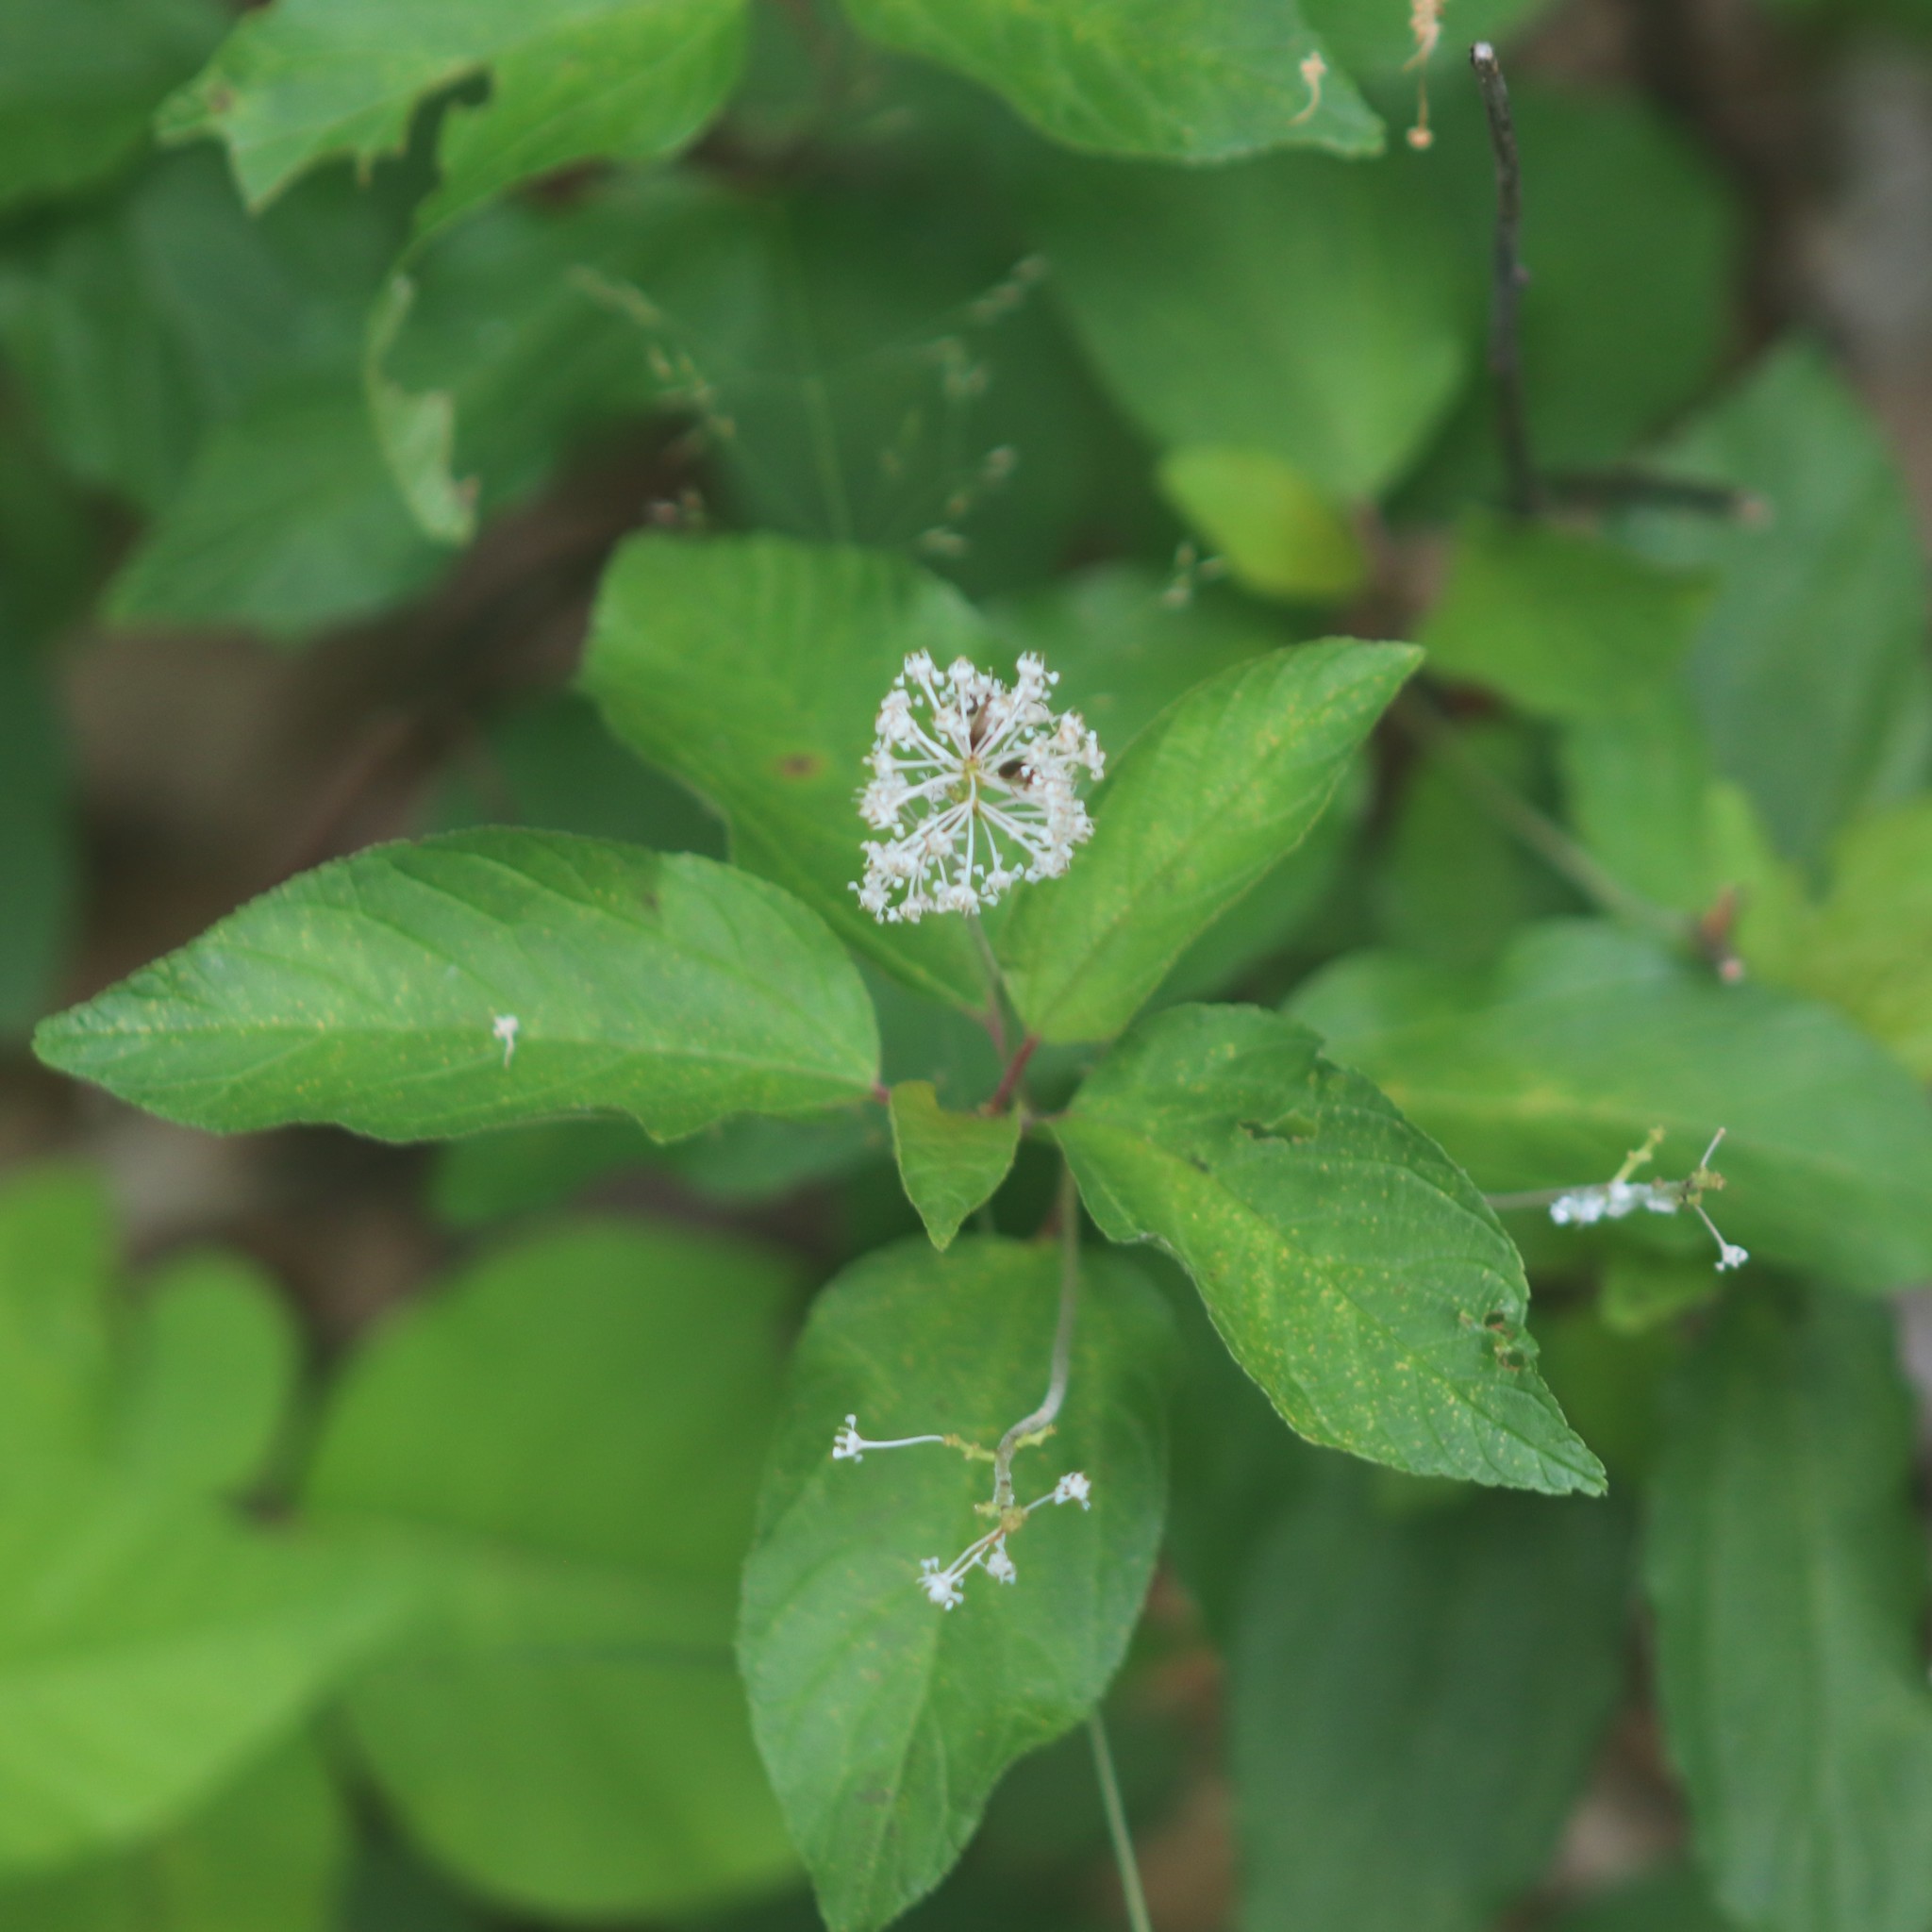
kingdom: Plantae
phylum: Tracheophyta
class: Magnoliopsida
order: Rosales
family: Rhamnaceae
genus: Ceanothus
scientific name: Ceanothus americanus
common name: Redroot
